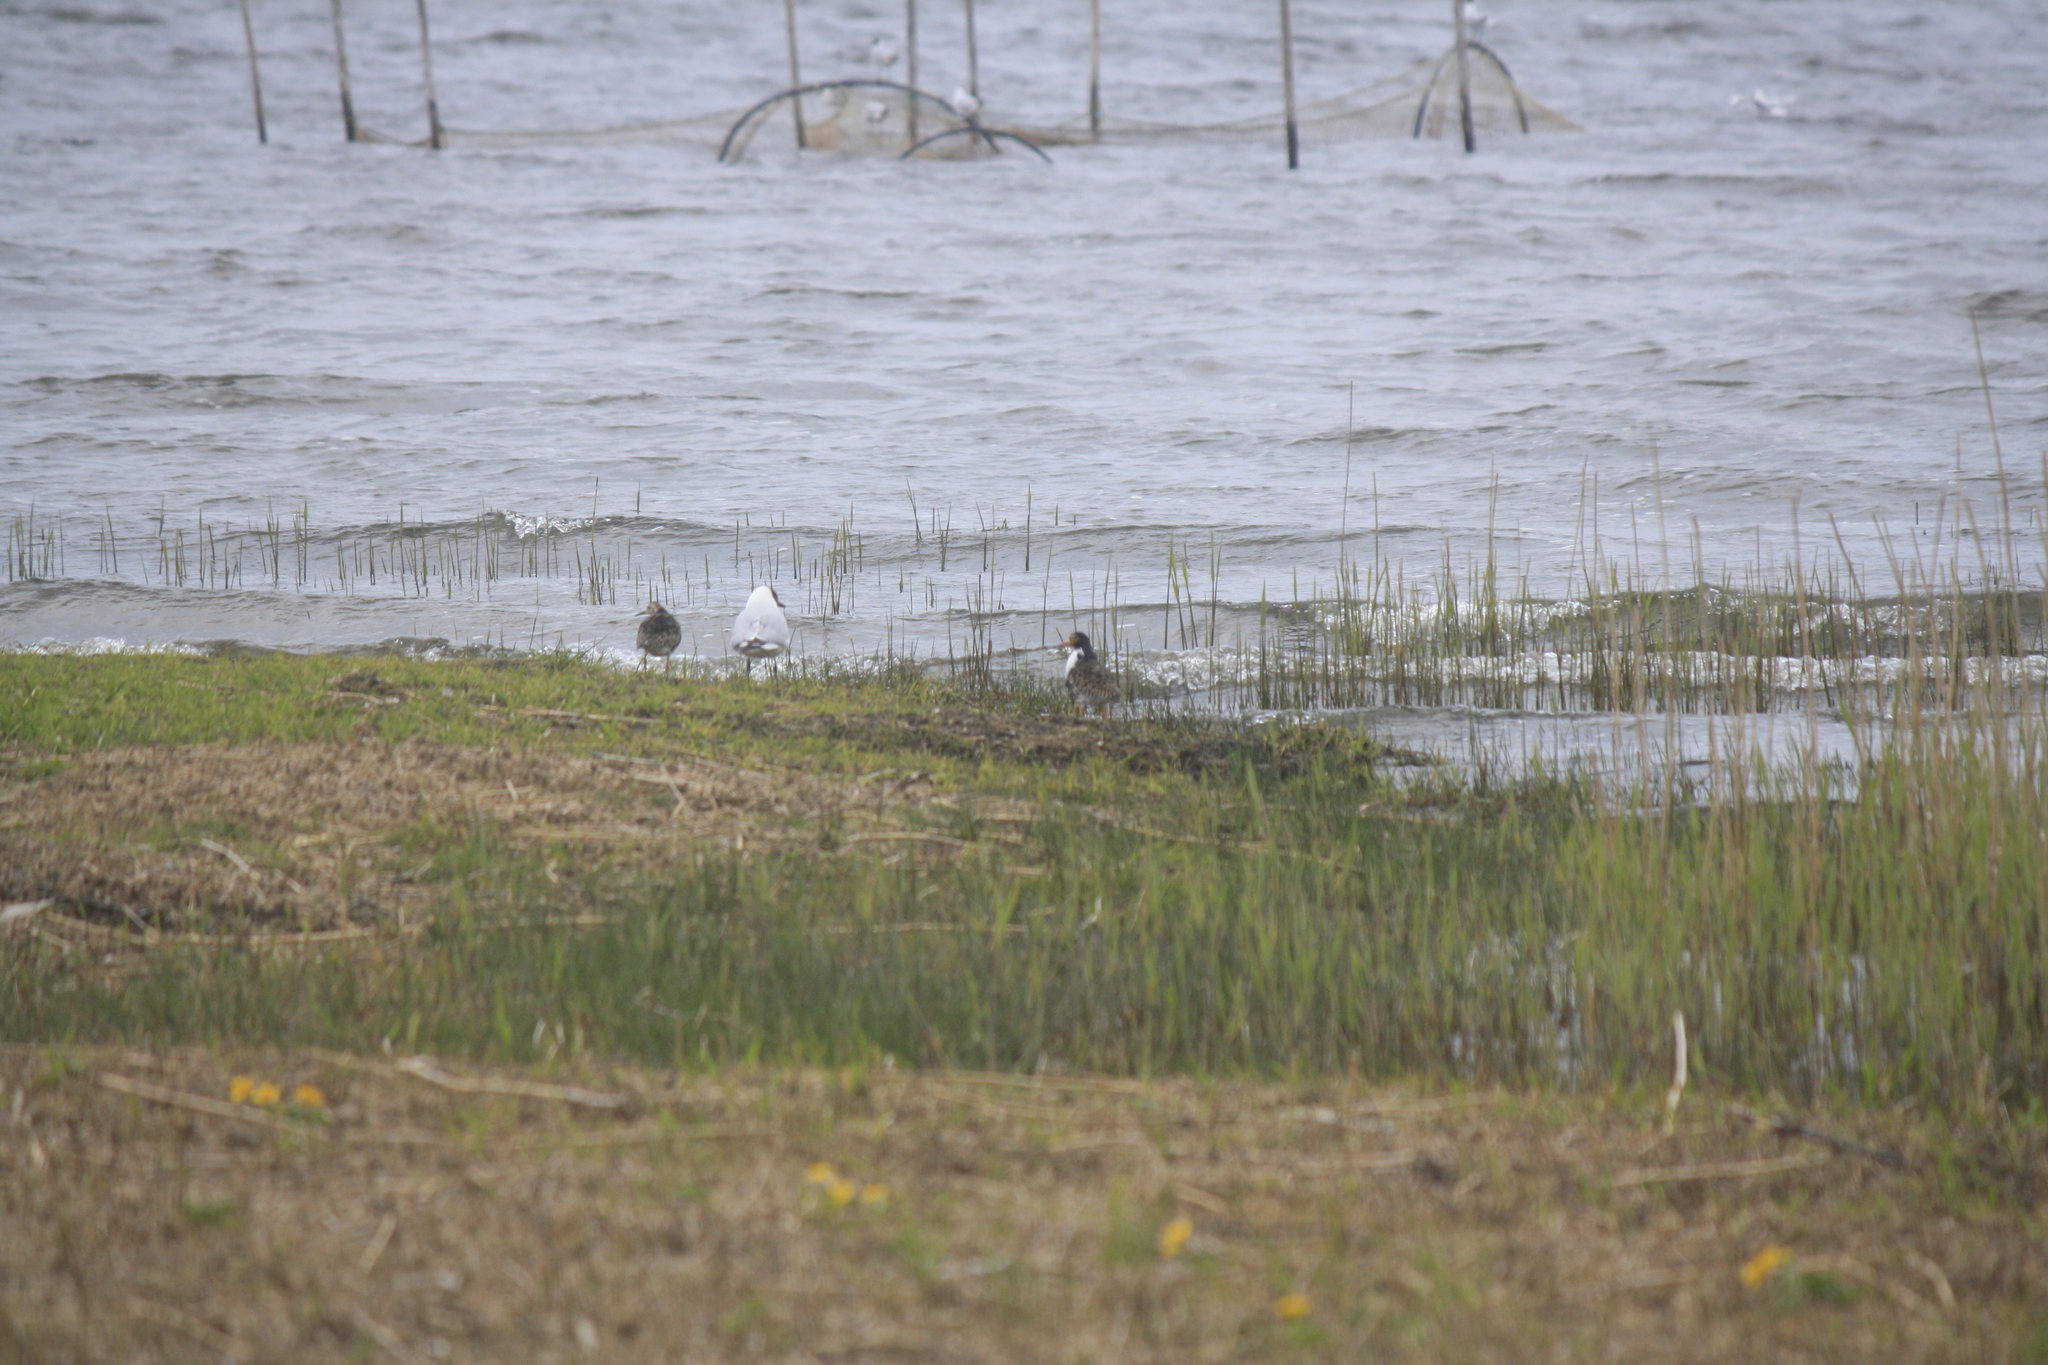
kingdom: Animalia
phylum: Chordata
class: Aves
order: Charadriiformes
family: Scolopacidae
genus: Calidris
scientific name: Calidris pugnax
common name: Ruff
